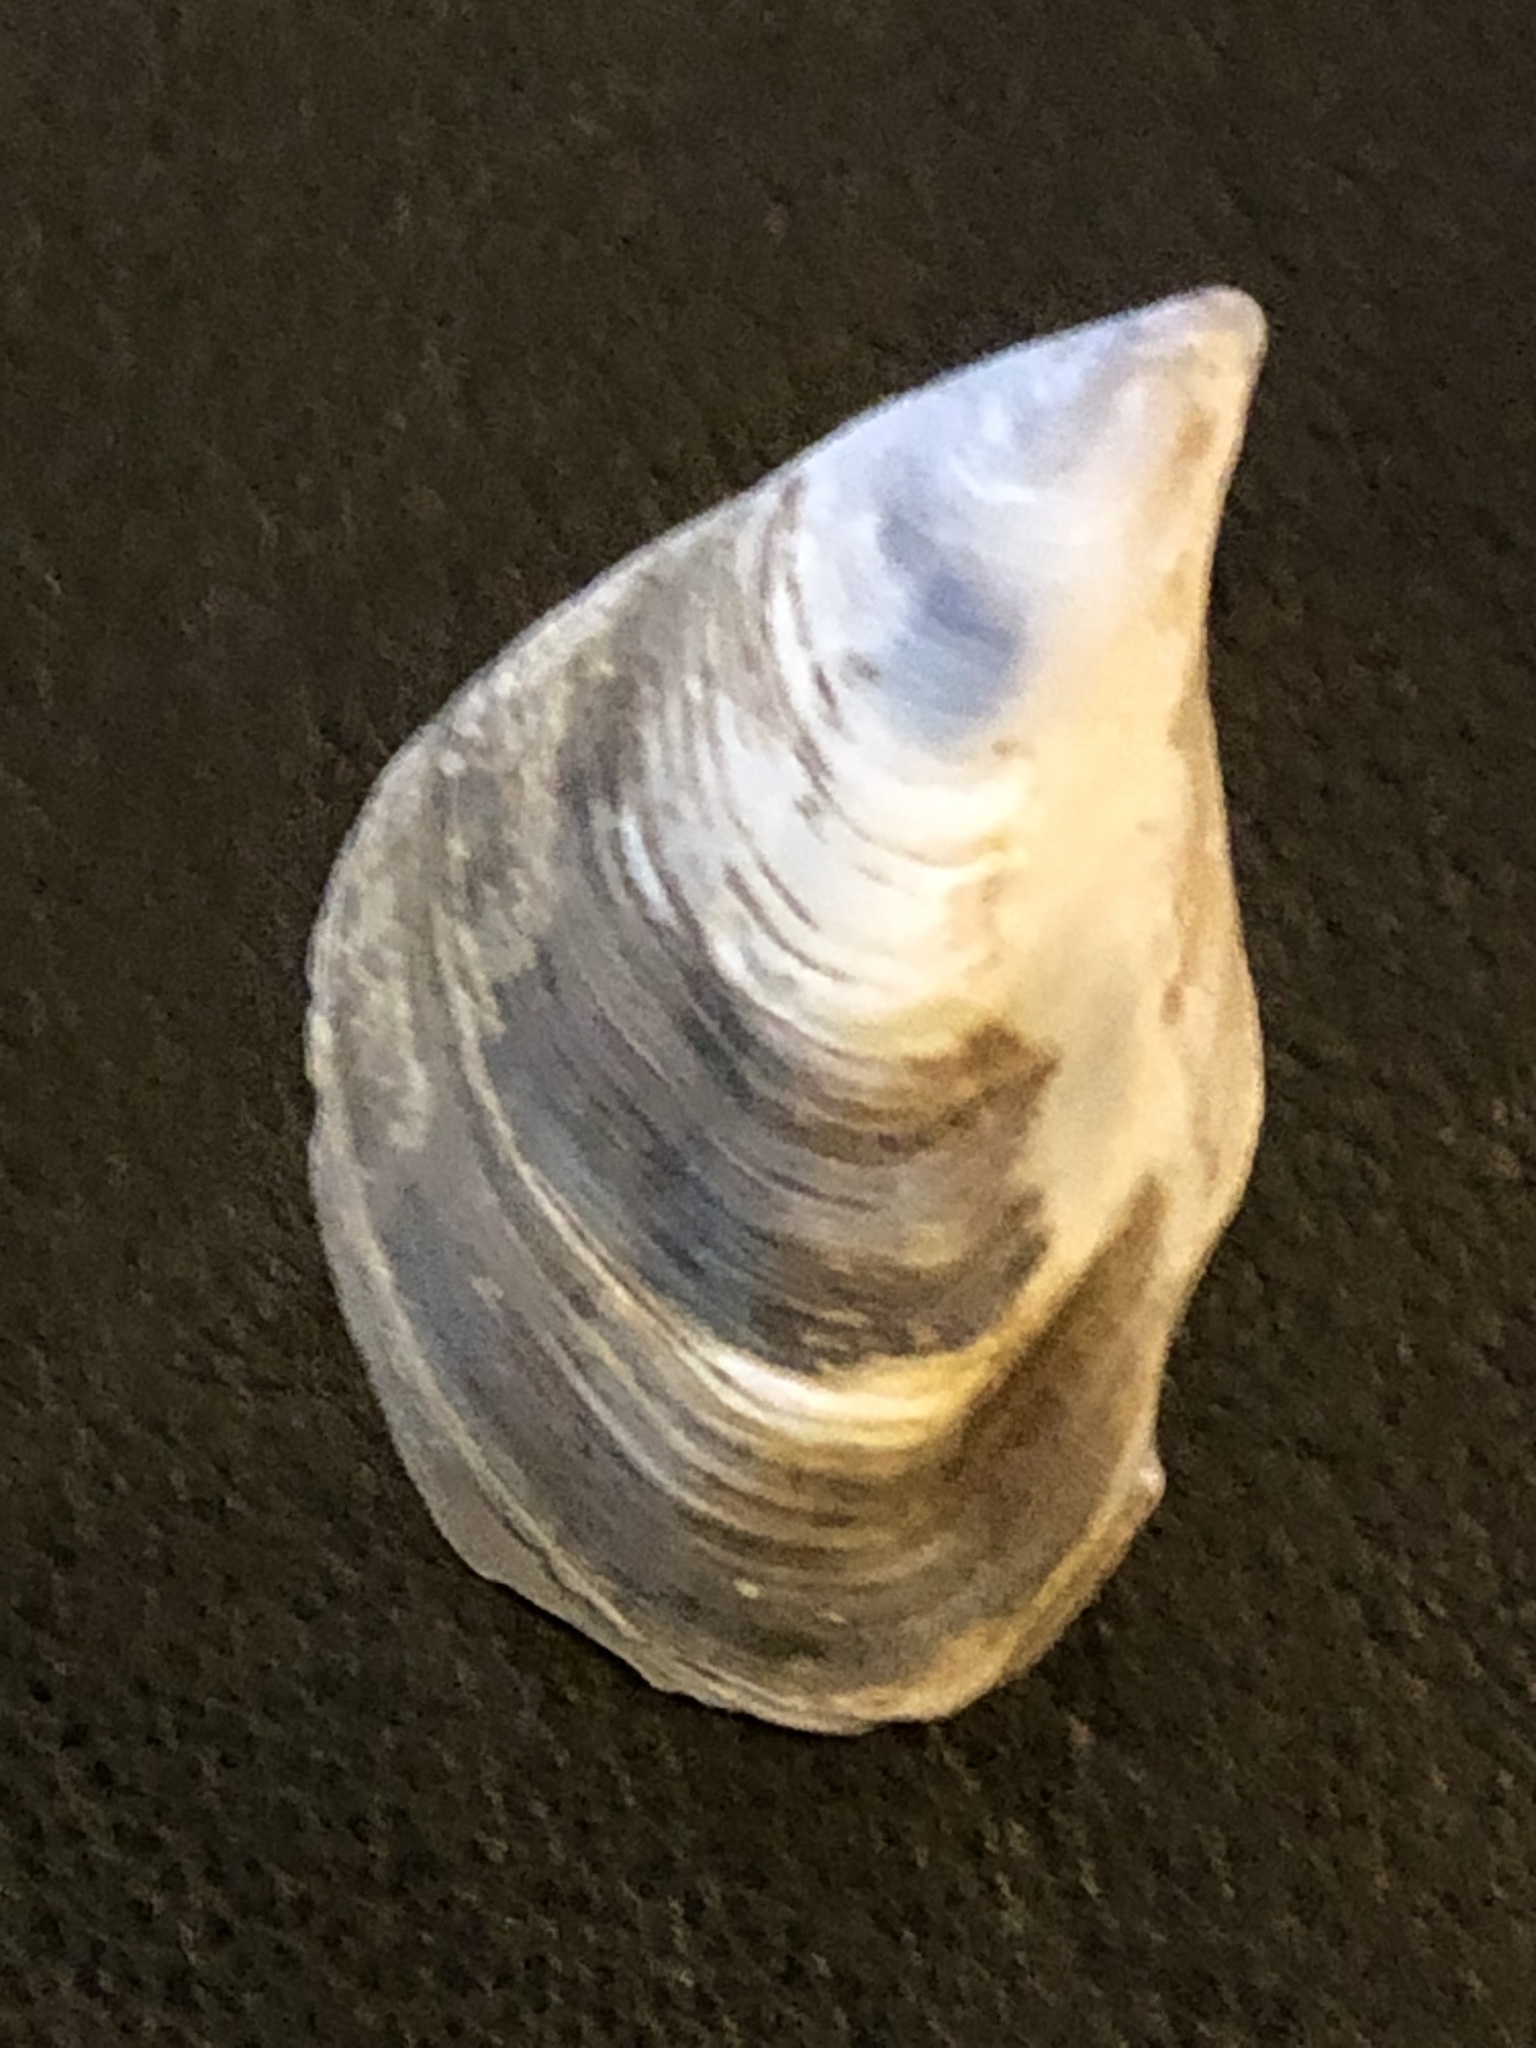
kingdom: Animalia
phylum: Mollusca
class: Bivalvia
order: Myida
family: Dreissenidae
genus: Dreissena
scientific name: Dreissena bugensis
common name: Quagga mussel
